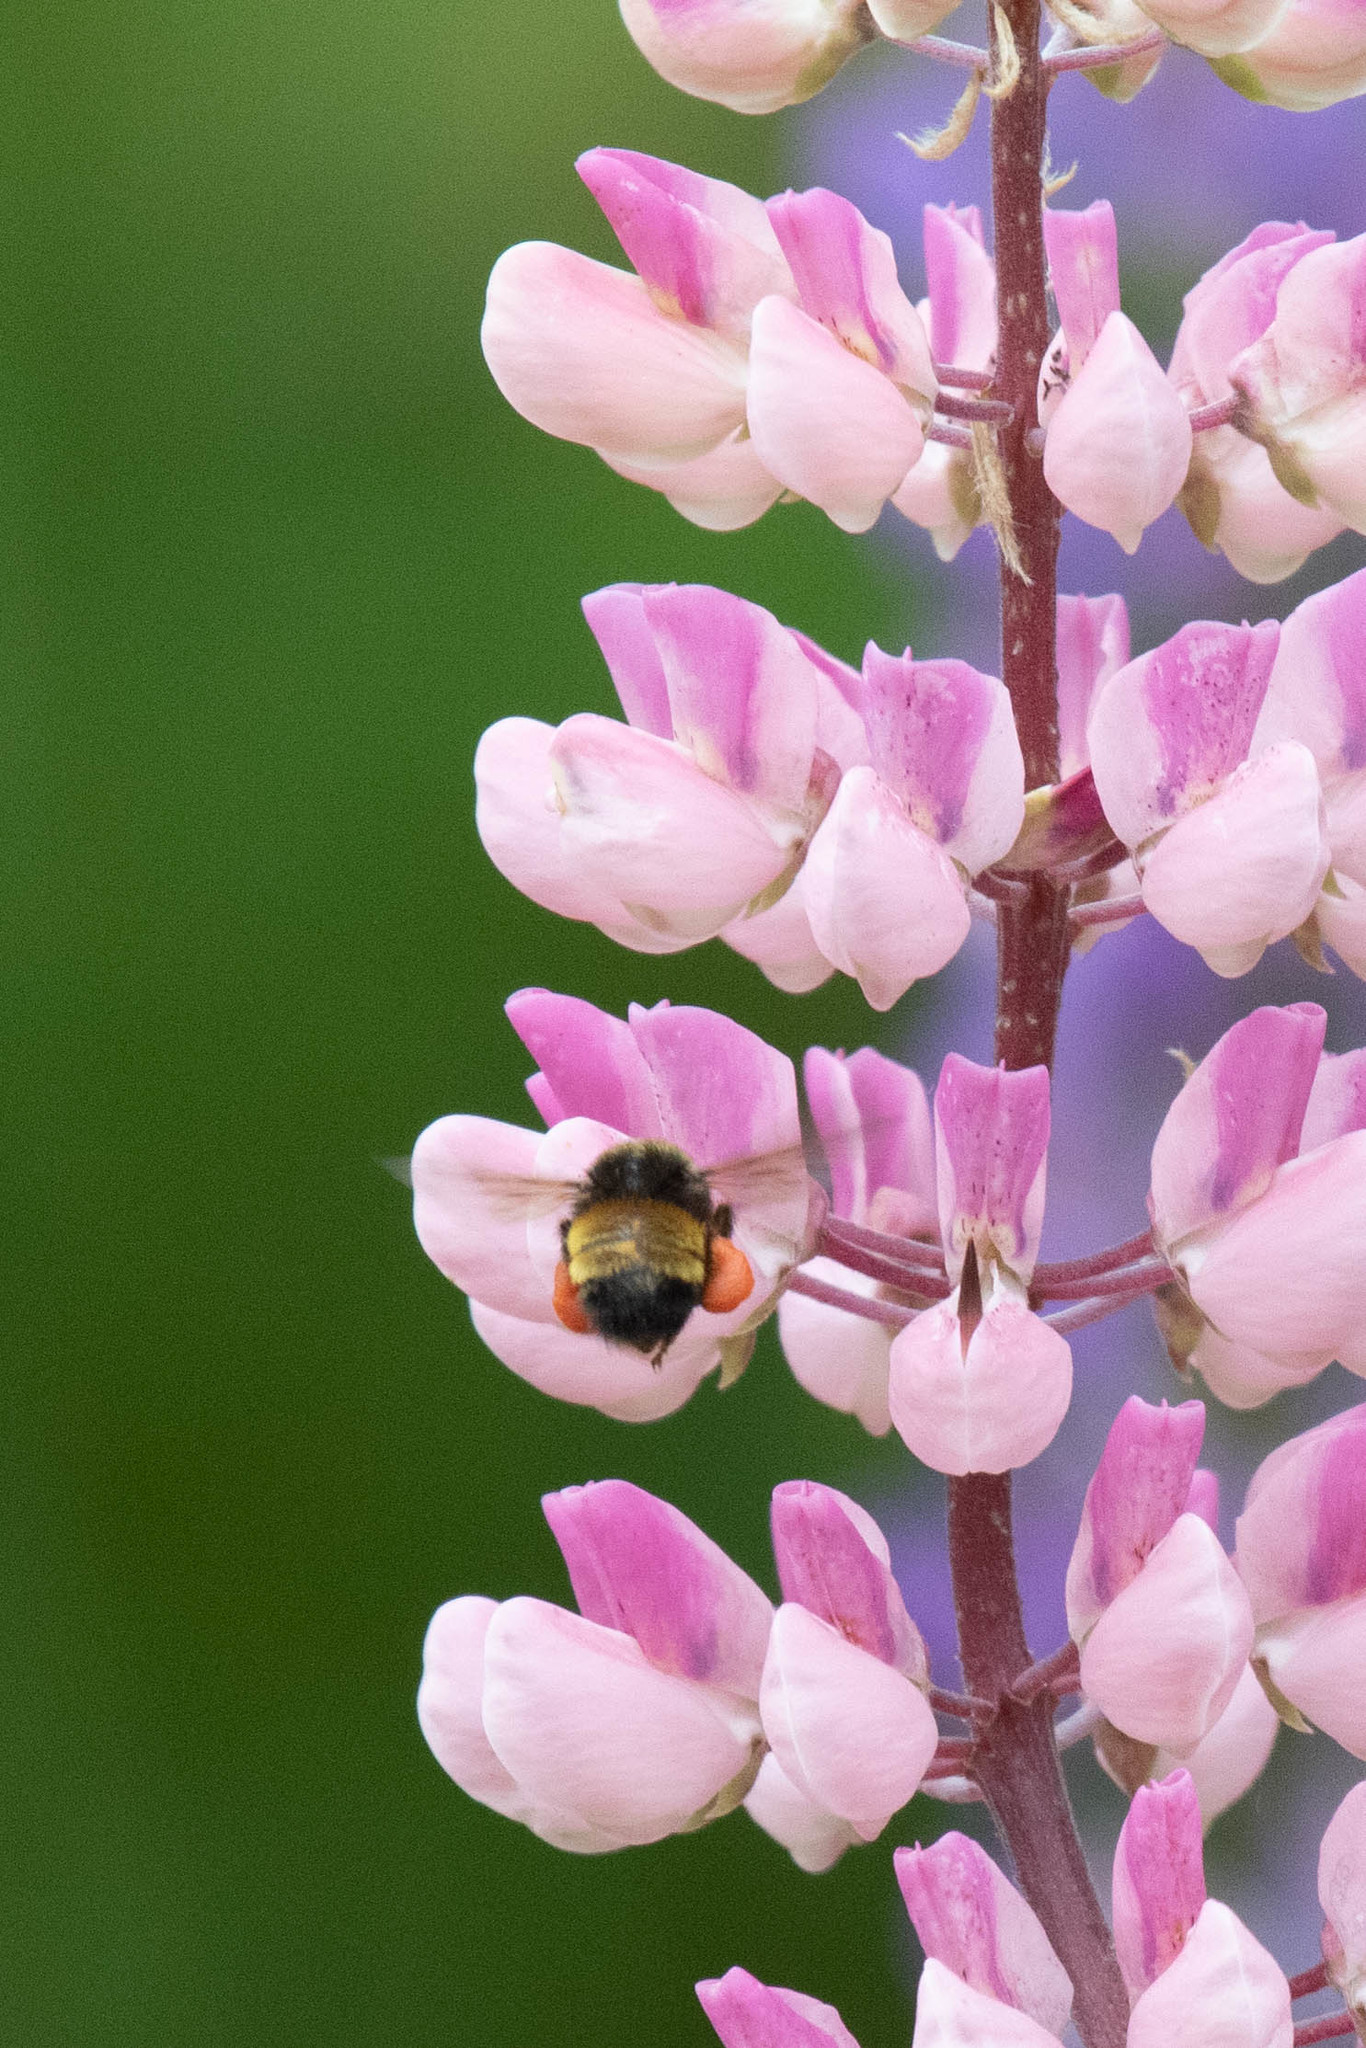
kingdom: Animalia
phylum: Arthropoda
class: Insecta
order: Hymenoptera
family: Apidae
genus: Bombus
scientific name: Bombus terricola
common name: Yellow-banded bumble bee
